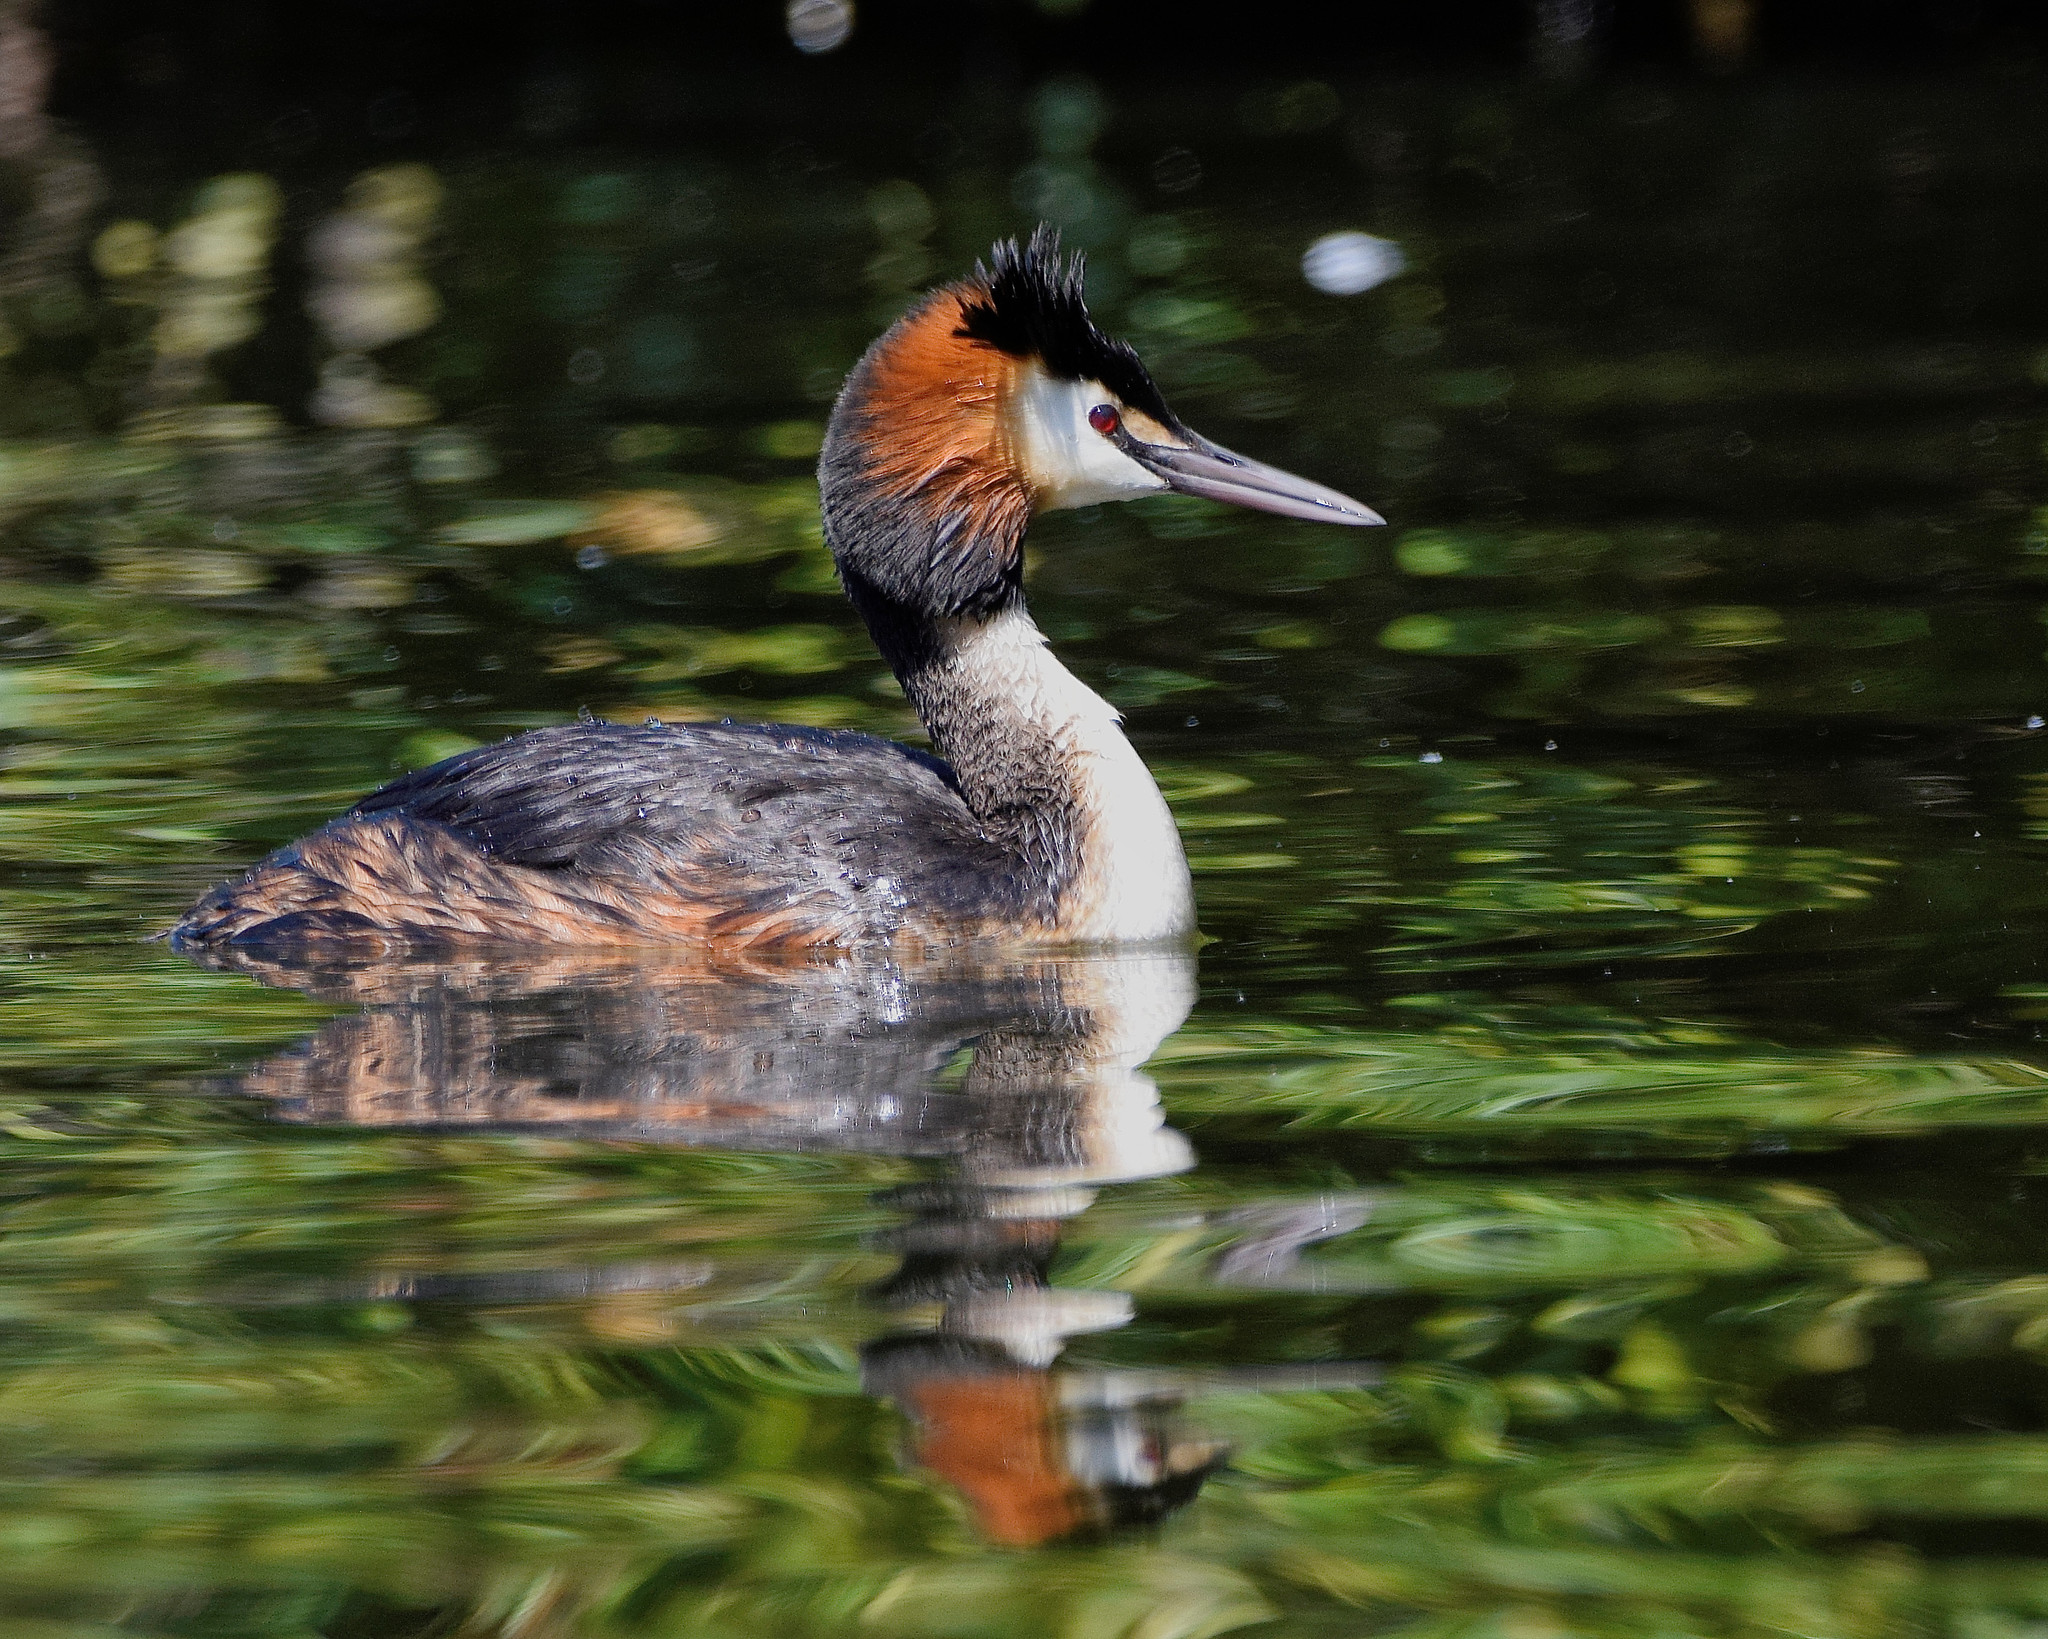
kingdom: Animalia
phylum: Chordata
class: Aves
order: Podicipediformes
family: Podicipedidae
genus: Podiceps
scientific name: Podiceps cristatus
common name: Great crested grebe
